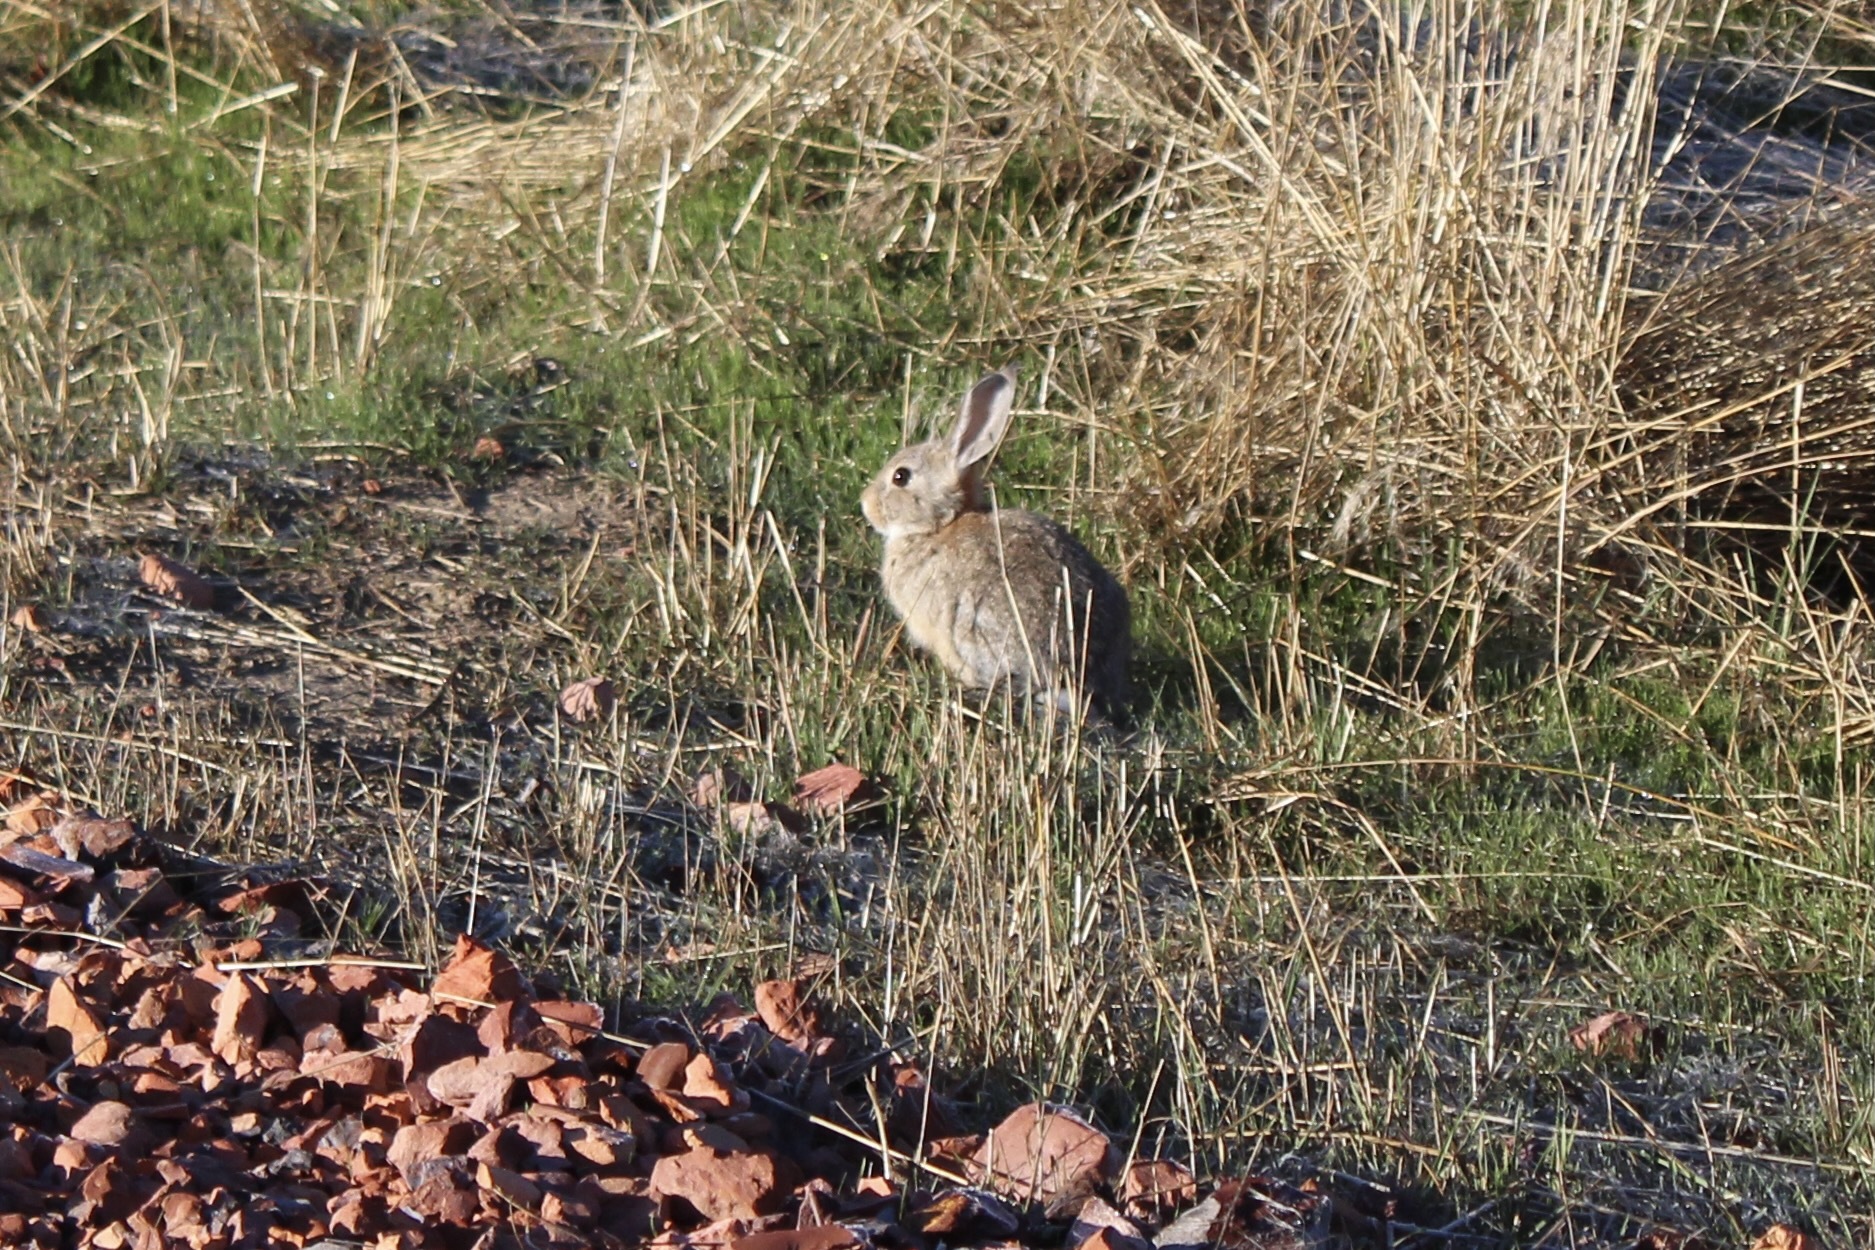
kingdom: Animalia
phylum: Chordata
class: Mammalia
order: Lagomorpha
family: Leporidae
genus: Sylvilagus
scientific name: Sylvilagus audubonii
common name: Desert cottontail
